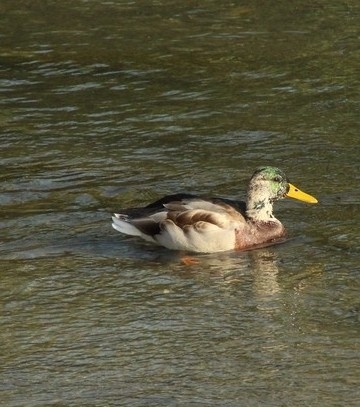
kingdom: Animalia
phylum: Chordata
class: Aves
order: Anseriformes
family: Anatidae
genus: Anas
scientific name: Anas platyrhynchos
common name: Mallard
